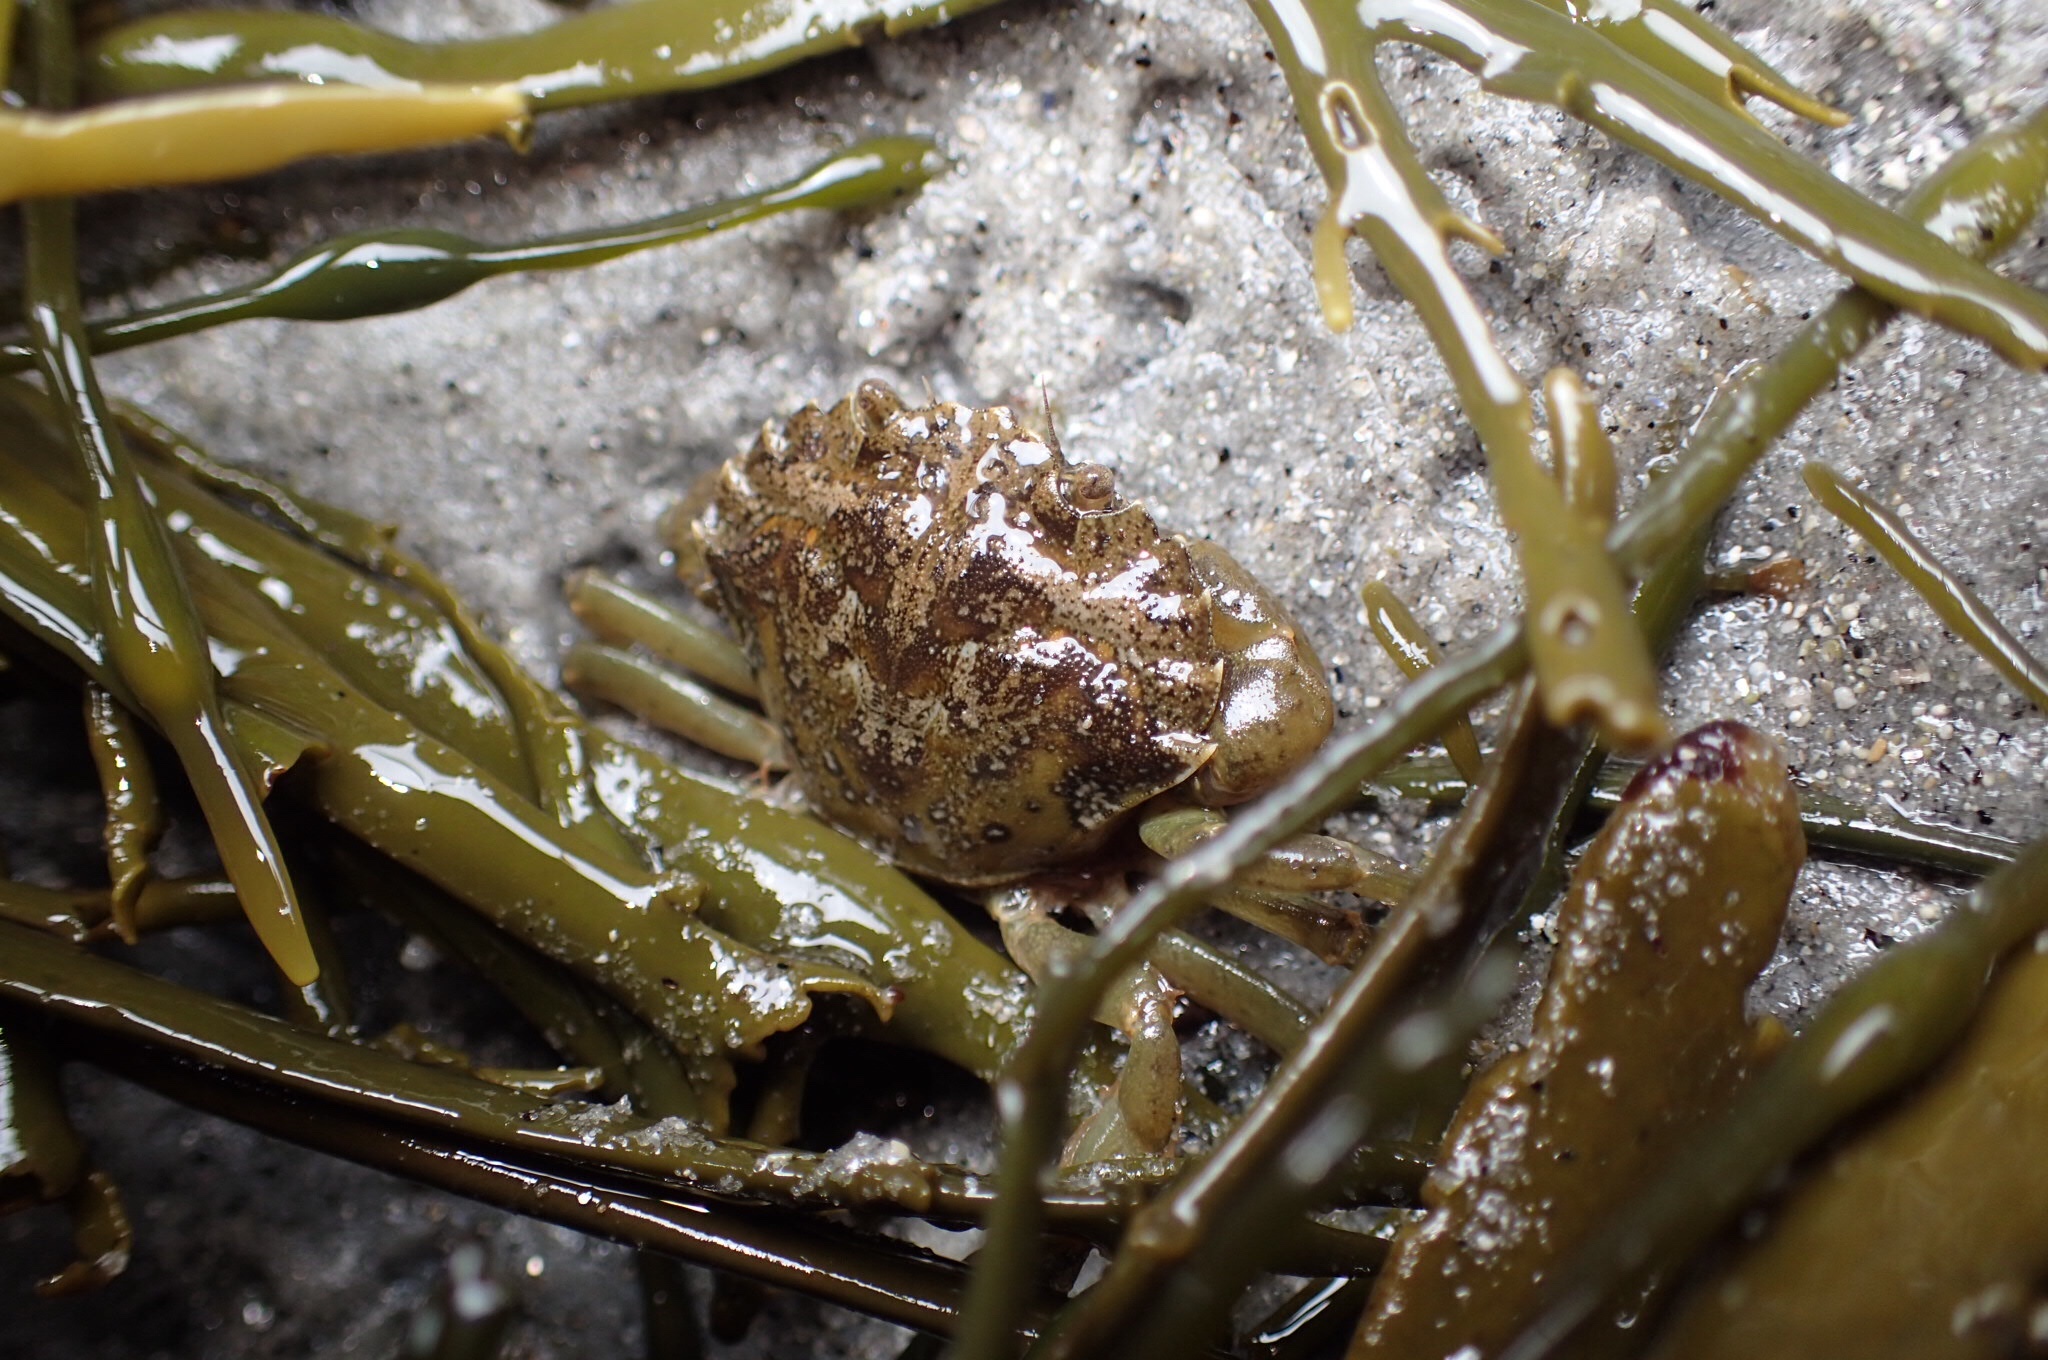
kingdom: Animalia
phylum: Arthropoda
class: Malacostraca
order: Decapoda
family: Carcinidae
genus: Carcinus
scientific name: Carcinus maenas
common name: European green crab
